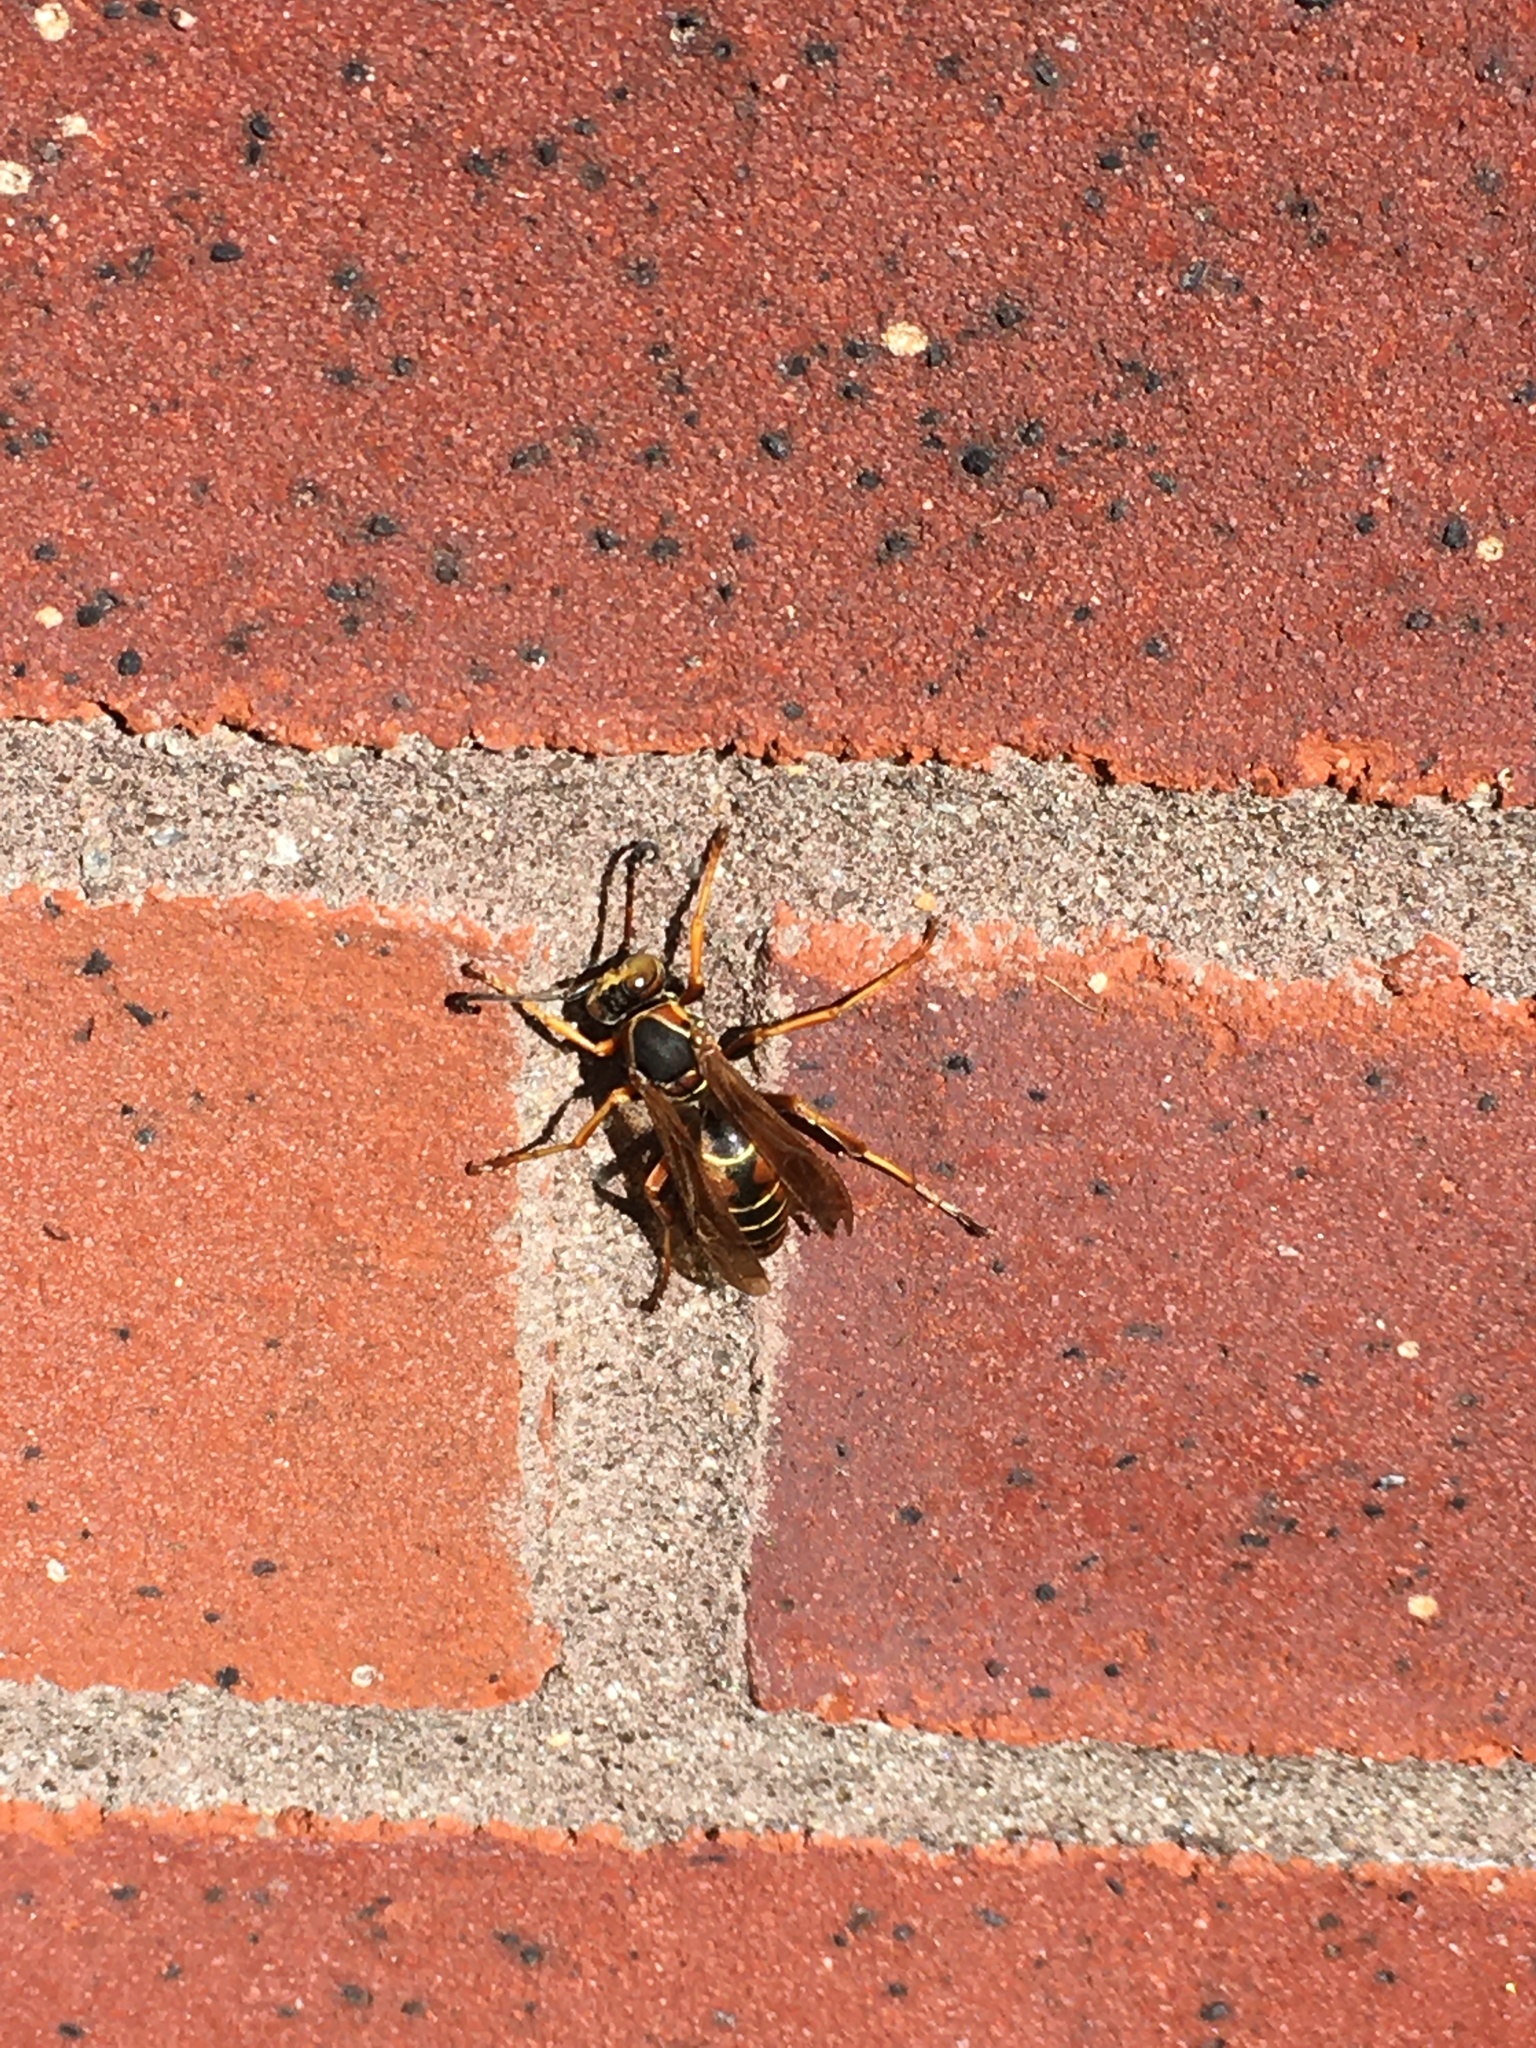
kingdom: Animalia
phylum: Arthropoda
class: Insecta
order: Hymenoptera
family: Eumenidae
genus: Polistes
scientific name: Polistes fuscatus
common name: Dark paper wasp
